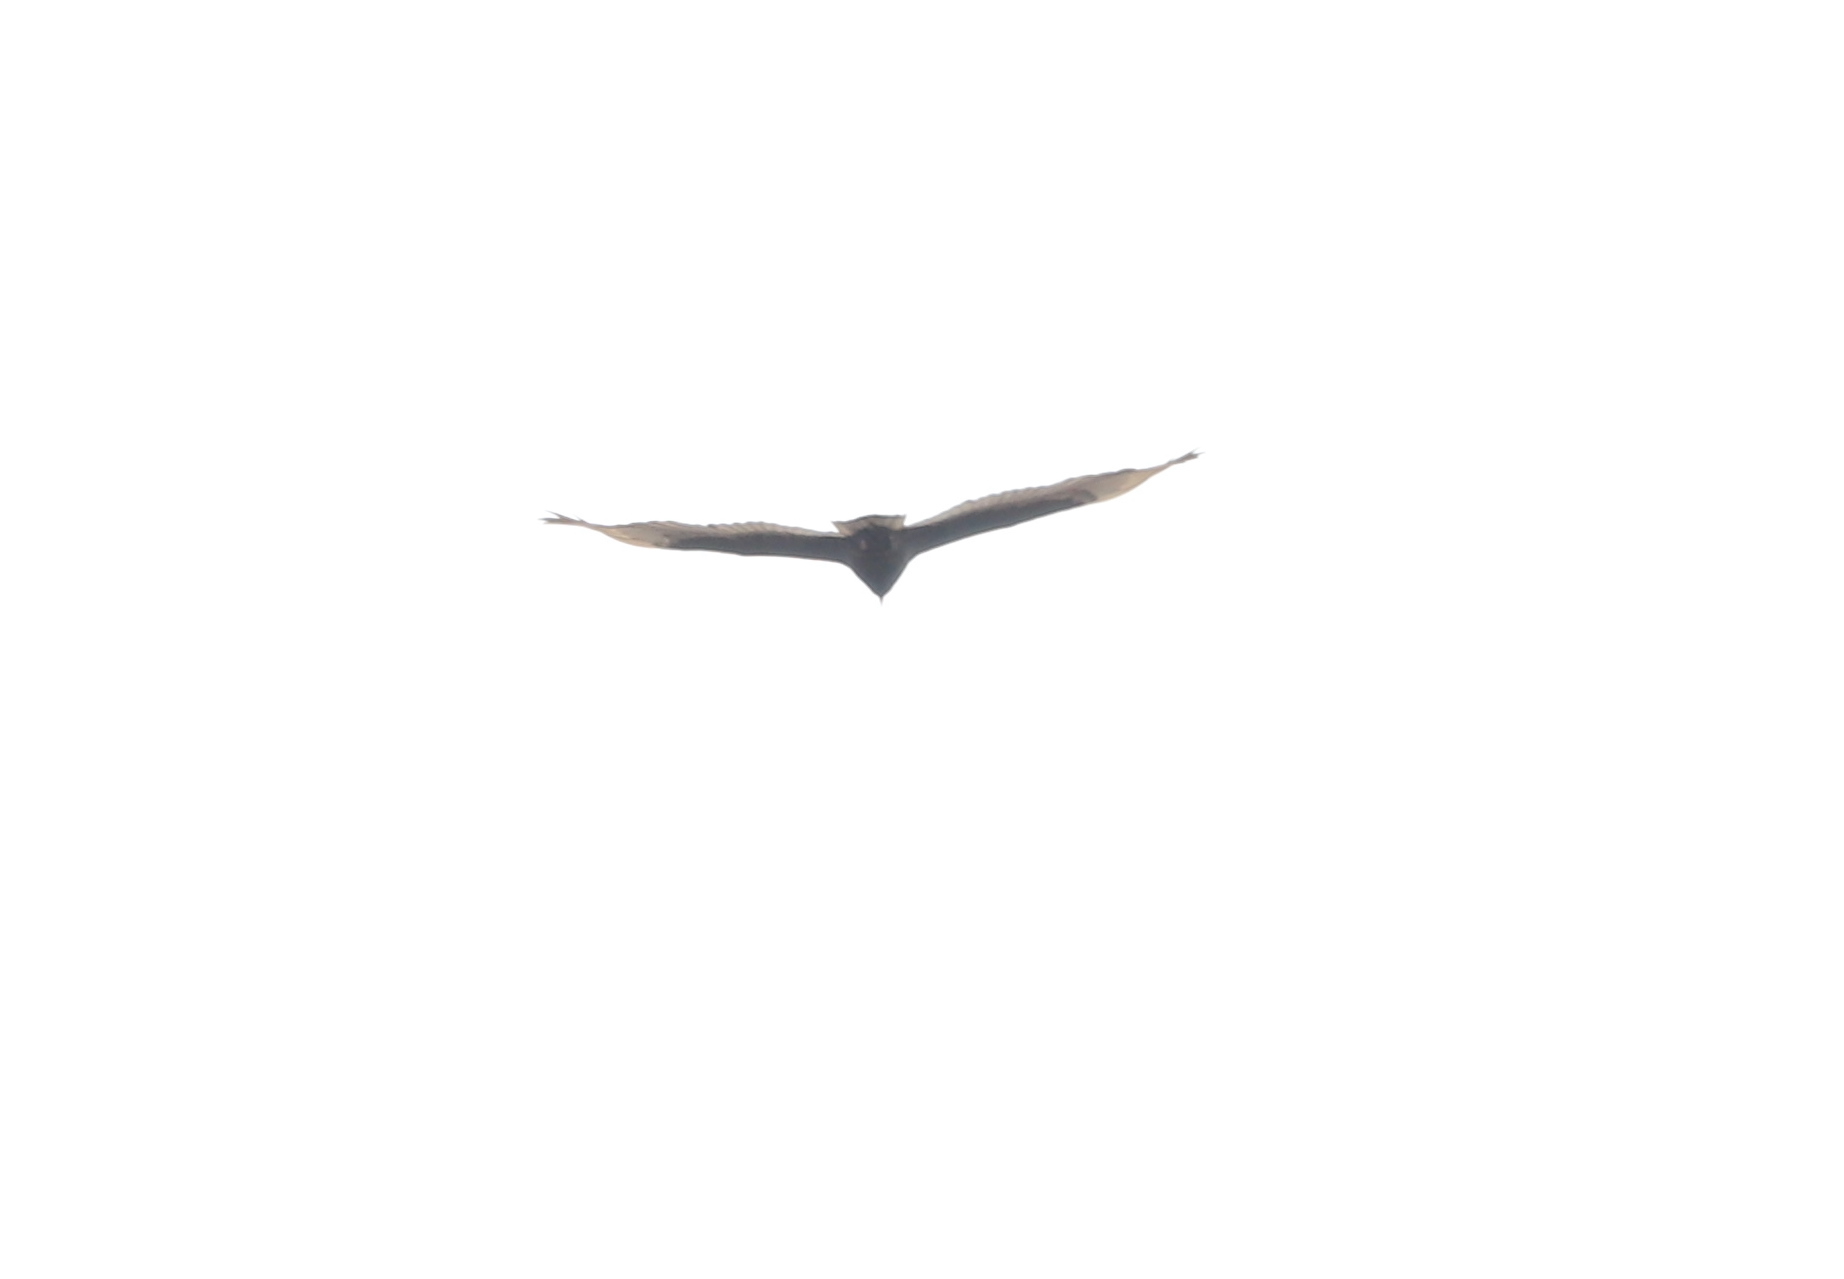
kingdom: Animalia
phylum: Chordata
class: Aves
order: Accipitriformes
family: Cathartidae
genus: Cathartes
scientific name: Cathartes aura
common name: Turkey vulture
